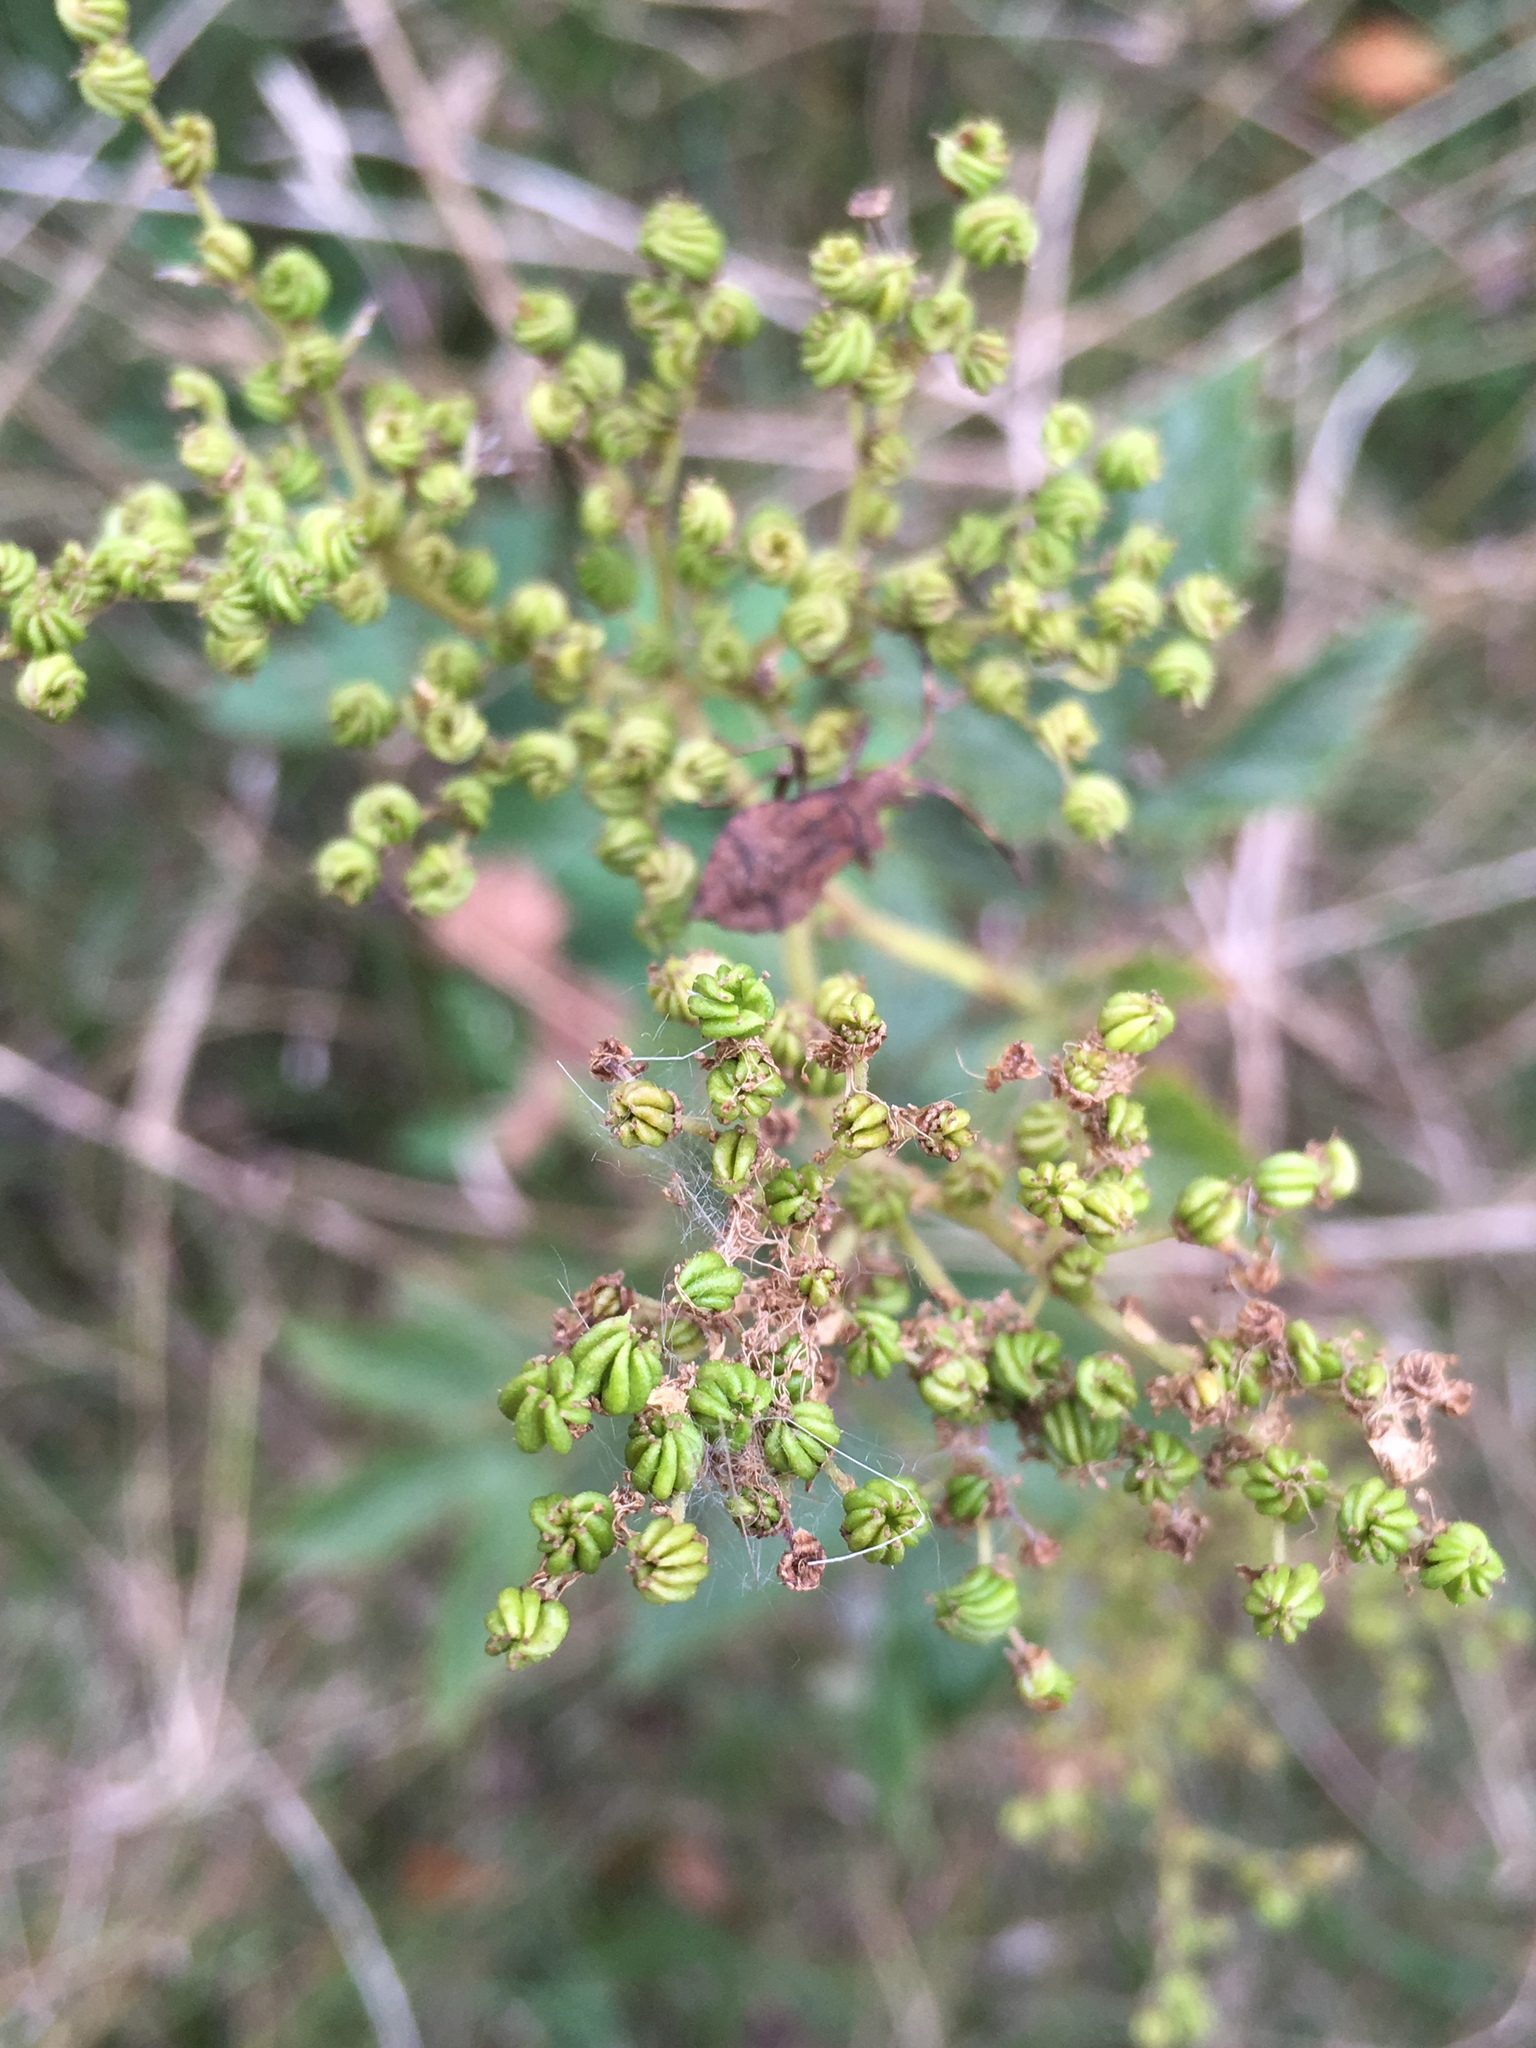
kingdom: Plantae
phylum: Tracheophyta
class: Magnoliopsida
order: Rosales
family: Rosaceae
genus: Filipendula
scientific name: Filipendula ulmaria
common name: Meadowsweet
